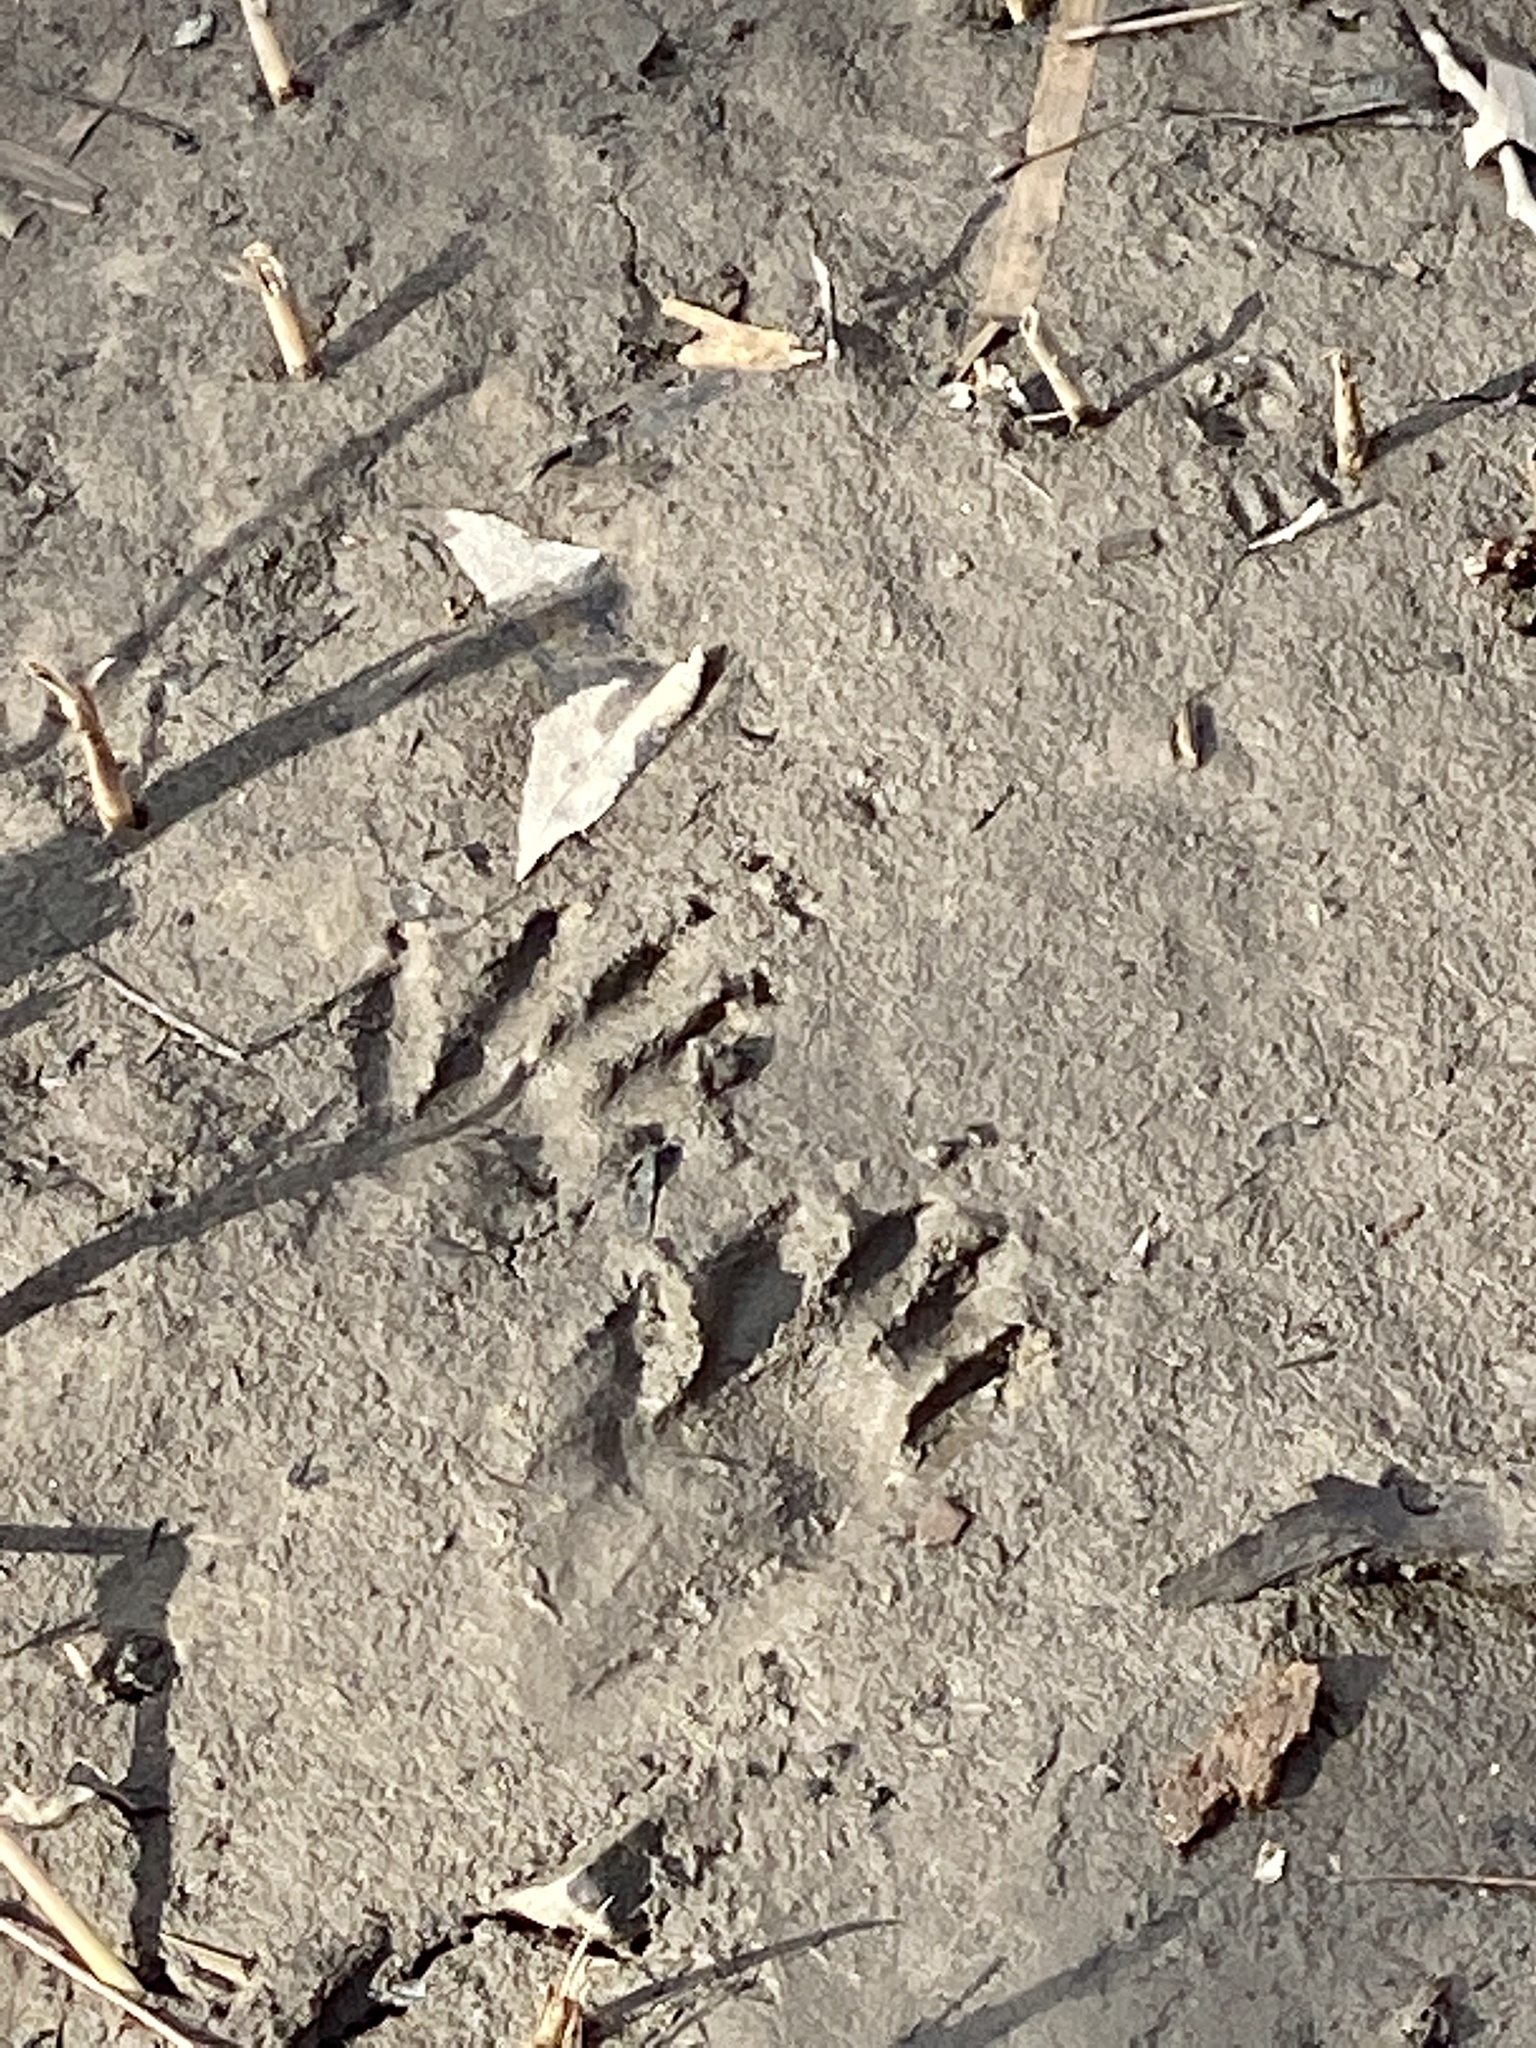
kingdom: Animalia
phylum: Chordata
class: Mammalia
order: Carnivora
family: Procyonidae
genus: Procyon
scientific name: Procyon lotor
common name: Raccoon
